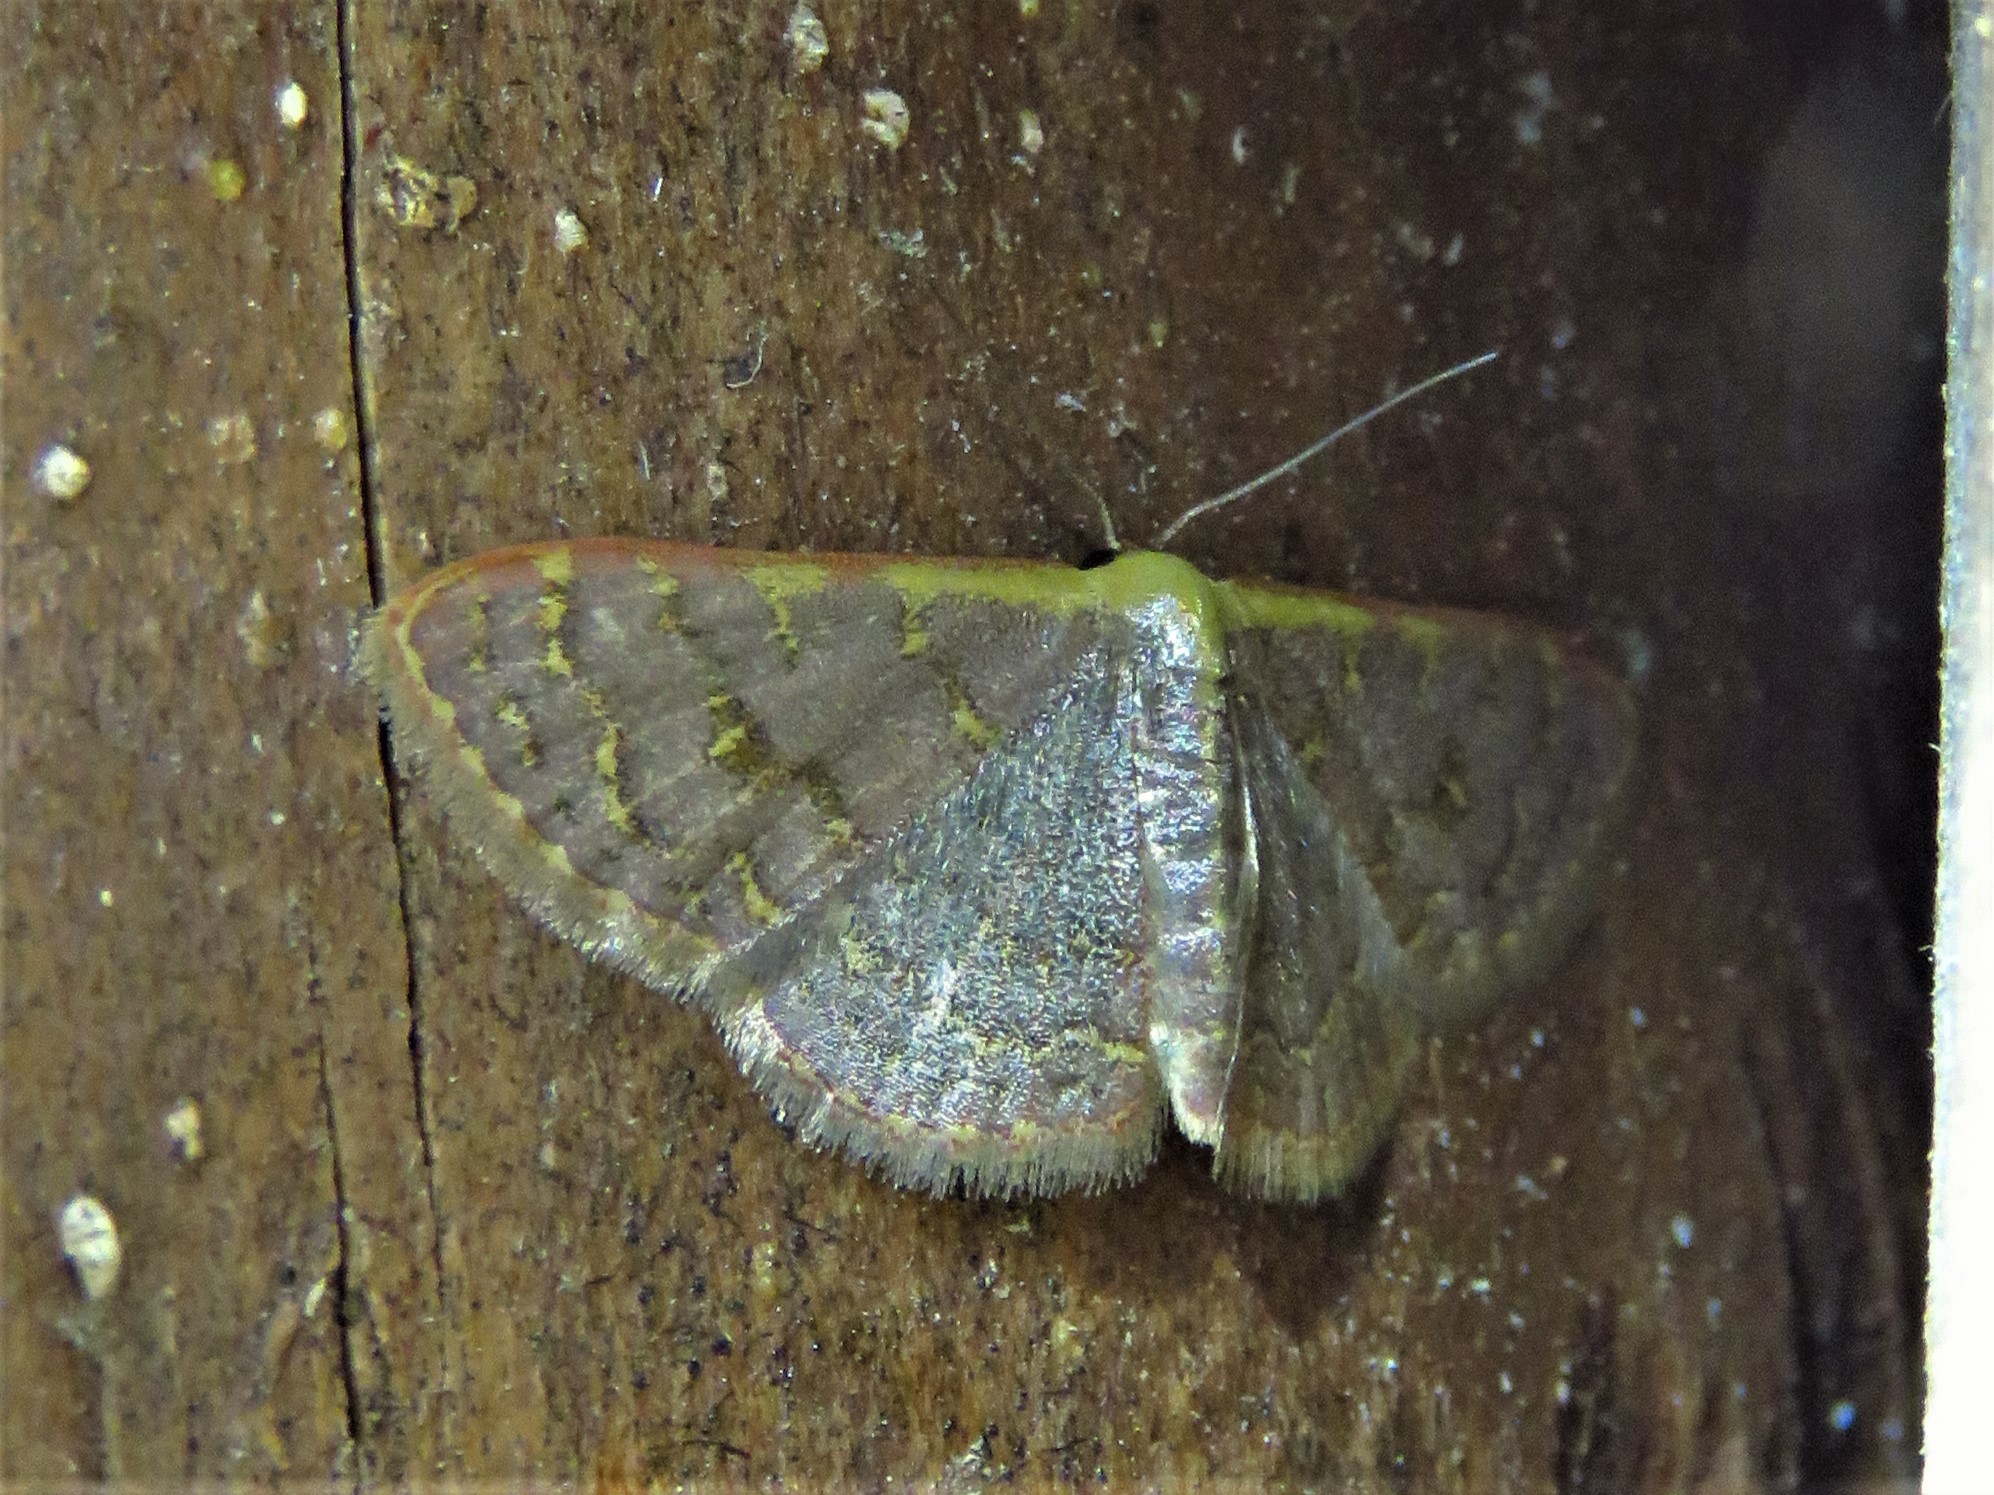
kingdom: Animalia
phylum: Arthropoda
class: Insecta
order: Lepidoptera
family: Geometridae
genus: Leptostales
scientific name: Leptostales pannaria
